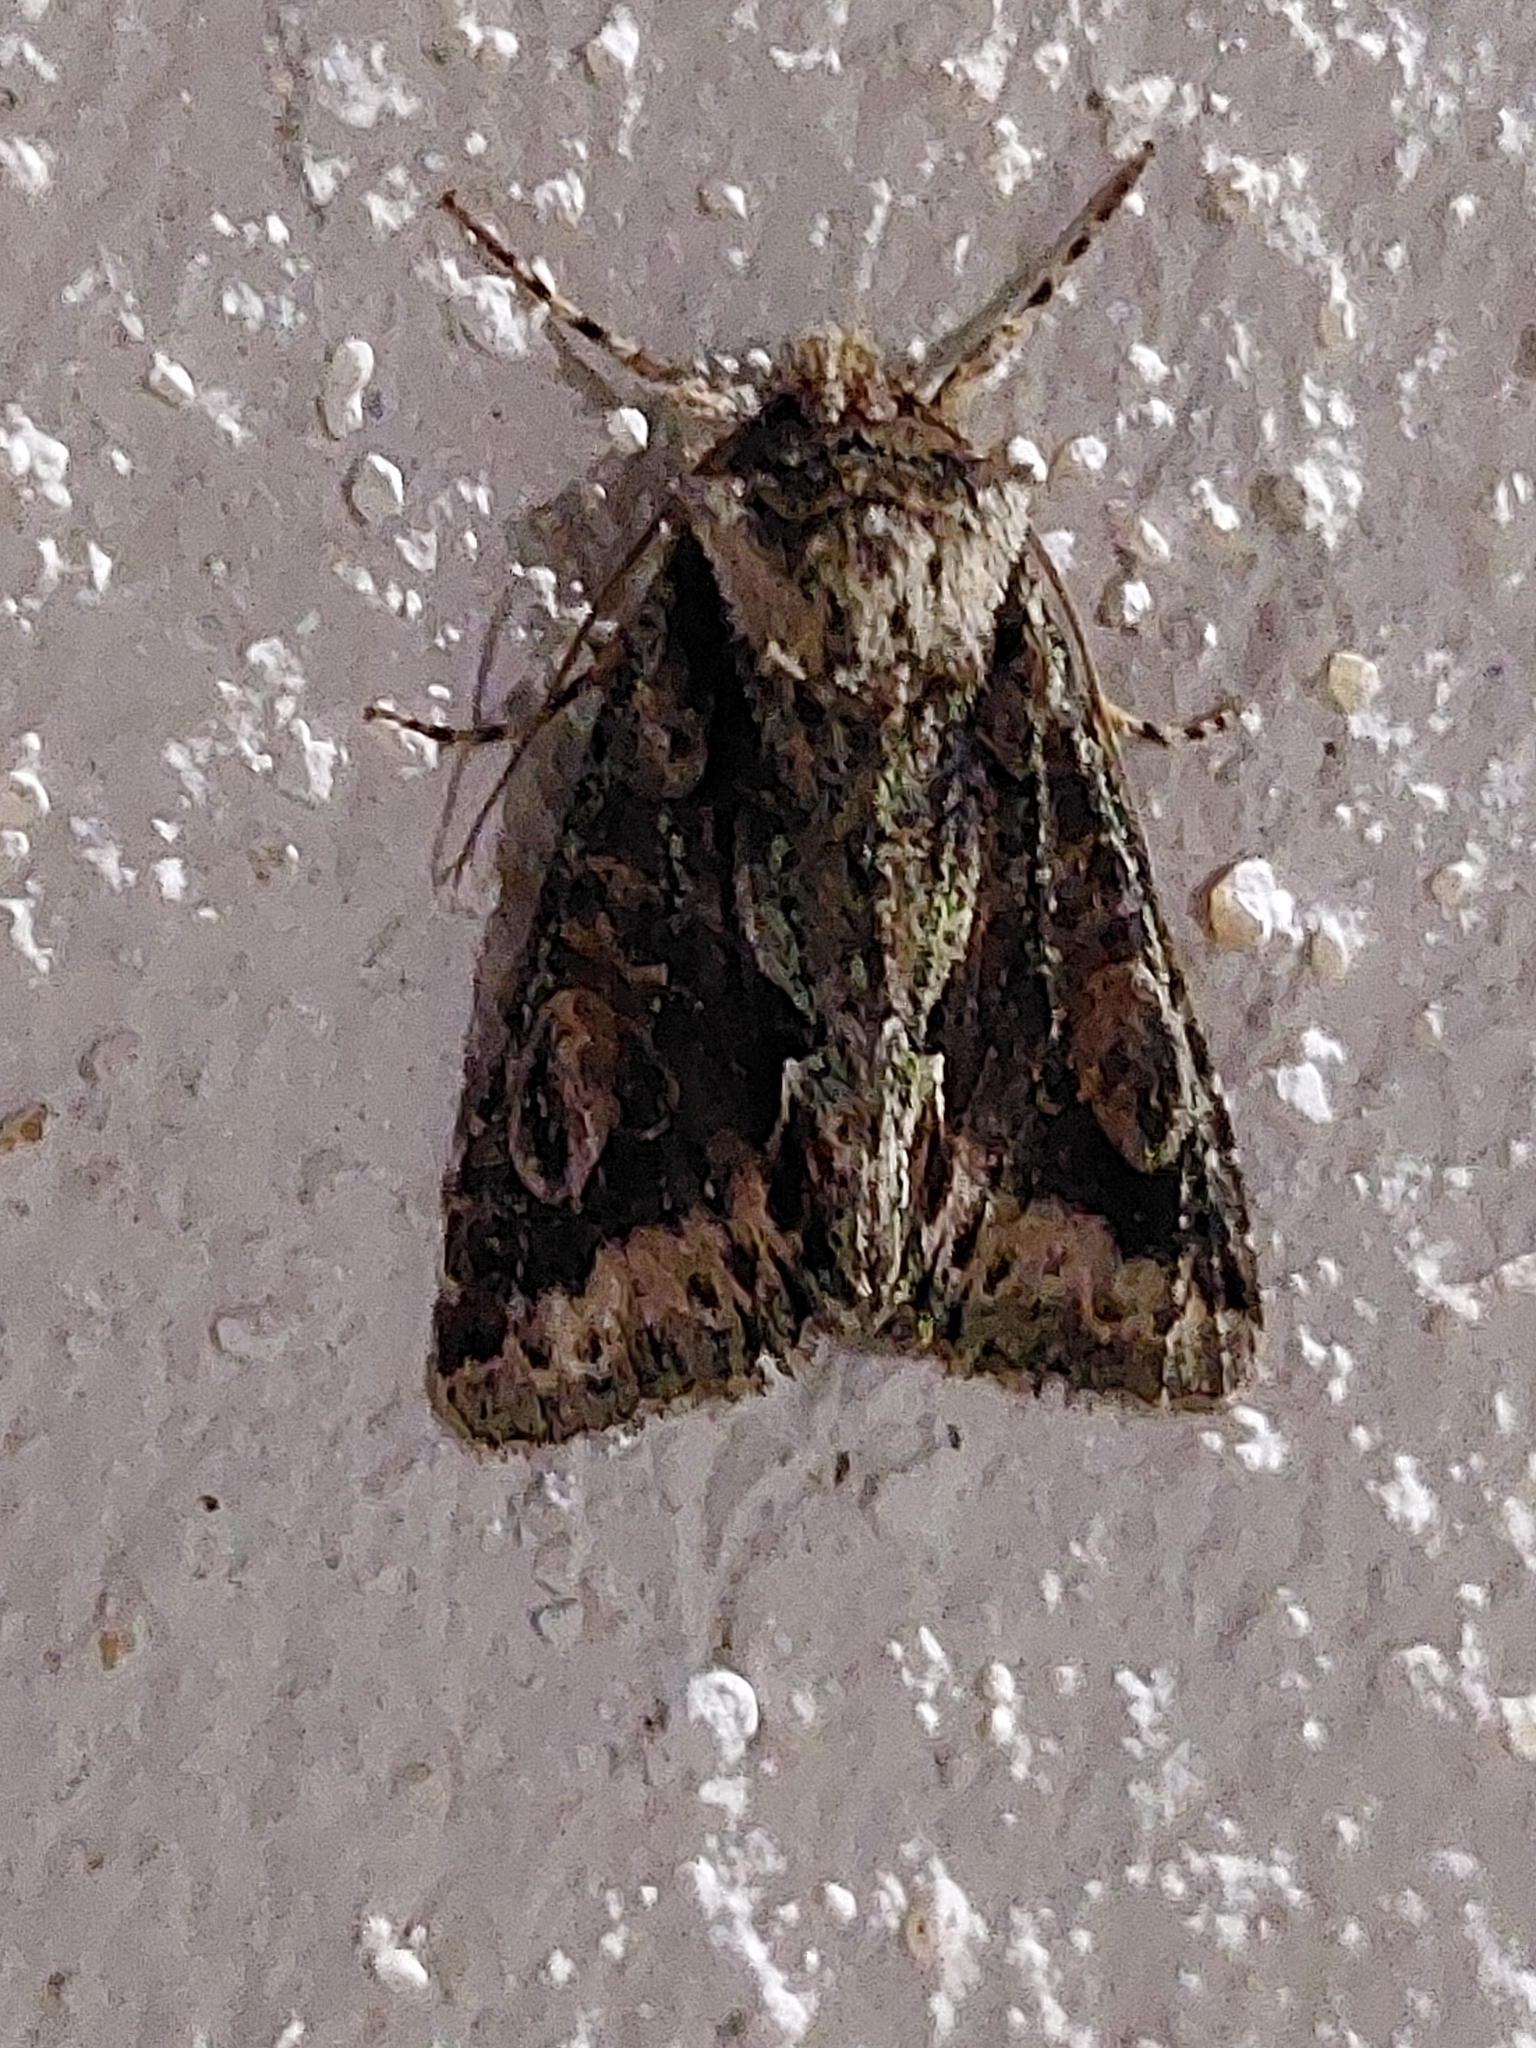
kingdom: Animalia
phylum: Arthropoda
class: Insecta
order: Lepidoptera
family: Noctuidae
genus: Allophyes
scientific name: Allophyes oxyacanthae
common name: Green-brindled crescent
